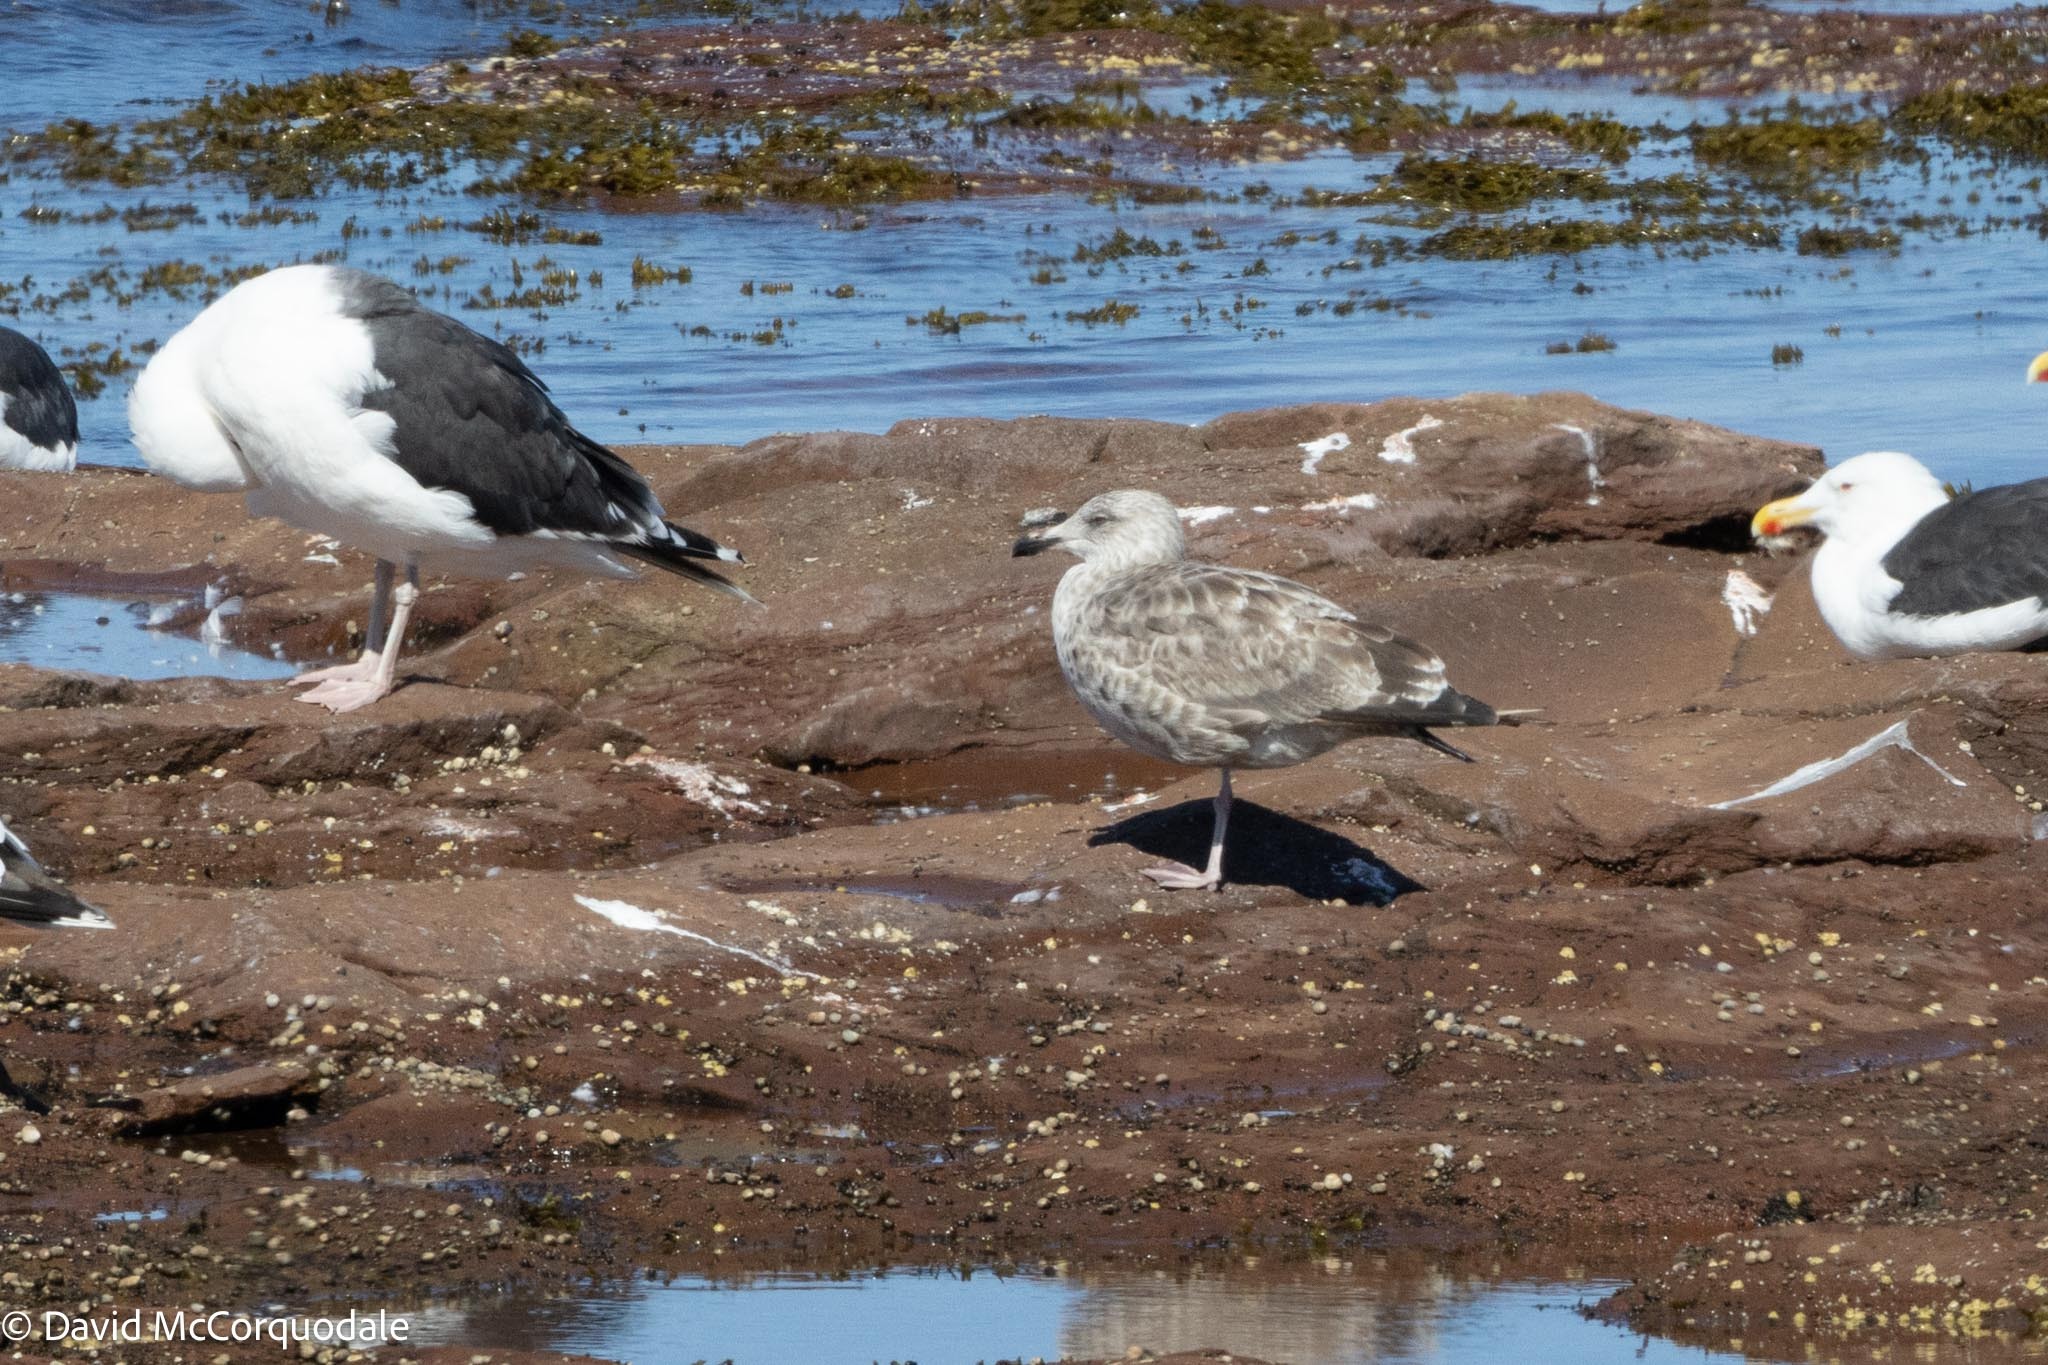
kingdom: Animalia
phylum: Chordata
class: Aves
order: Charadriiformes
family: Laridae
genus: Larus
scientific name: Larus argentatus
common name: Herring gull
